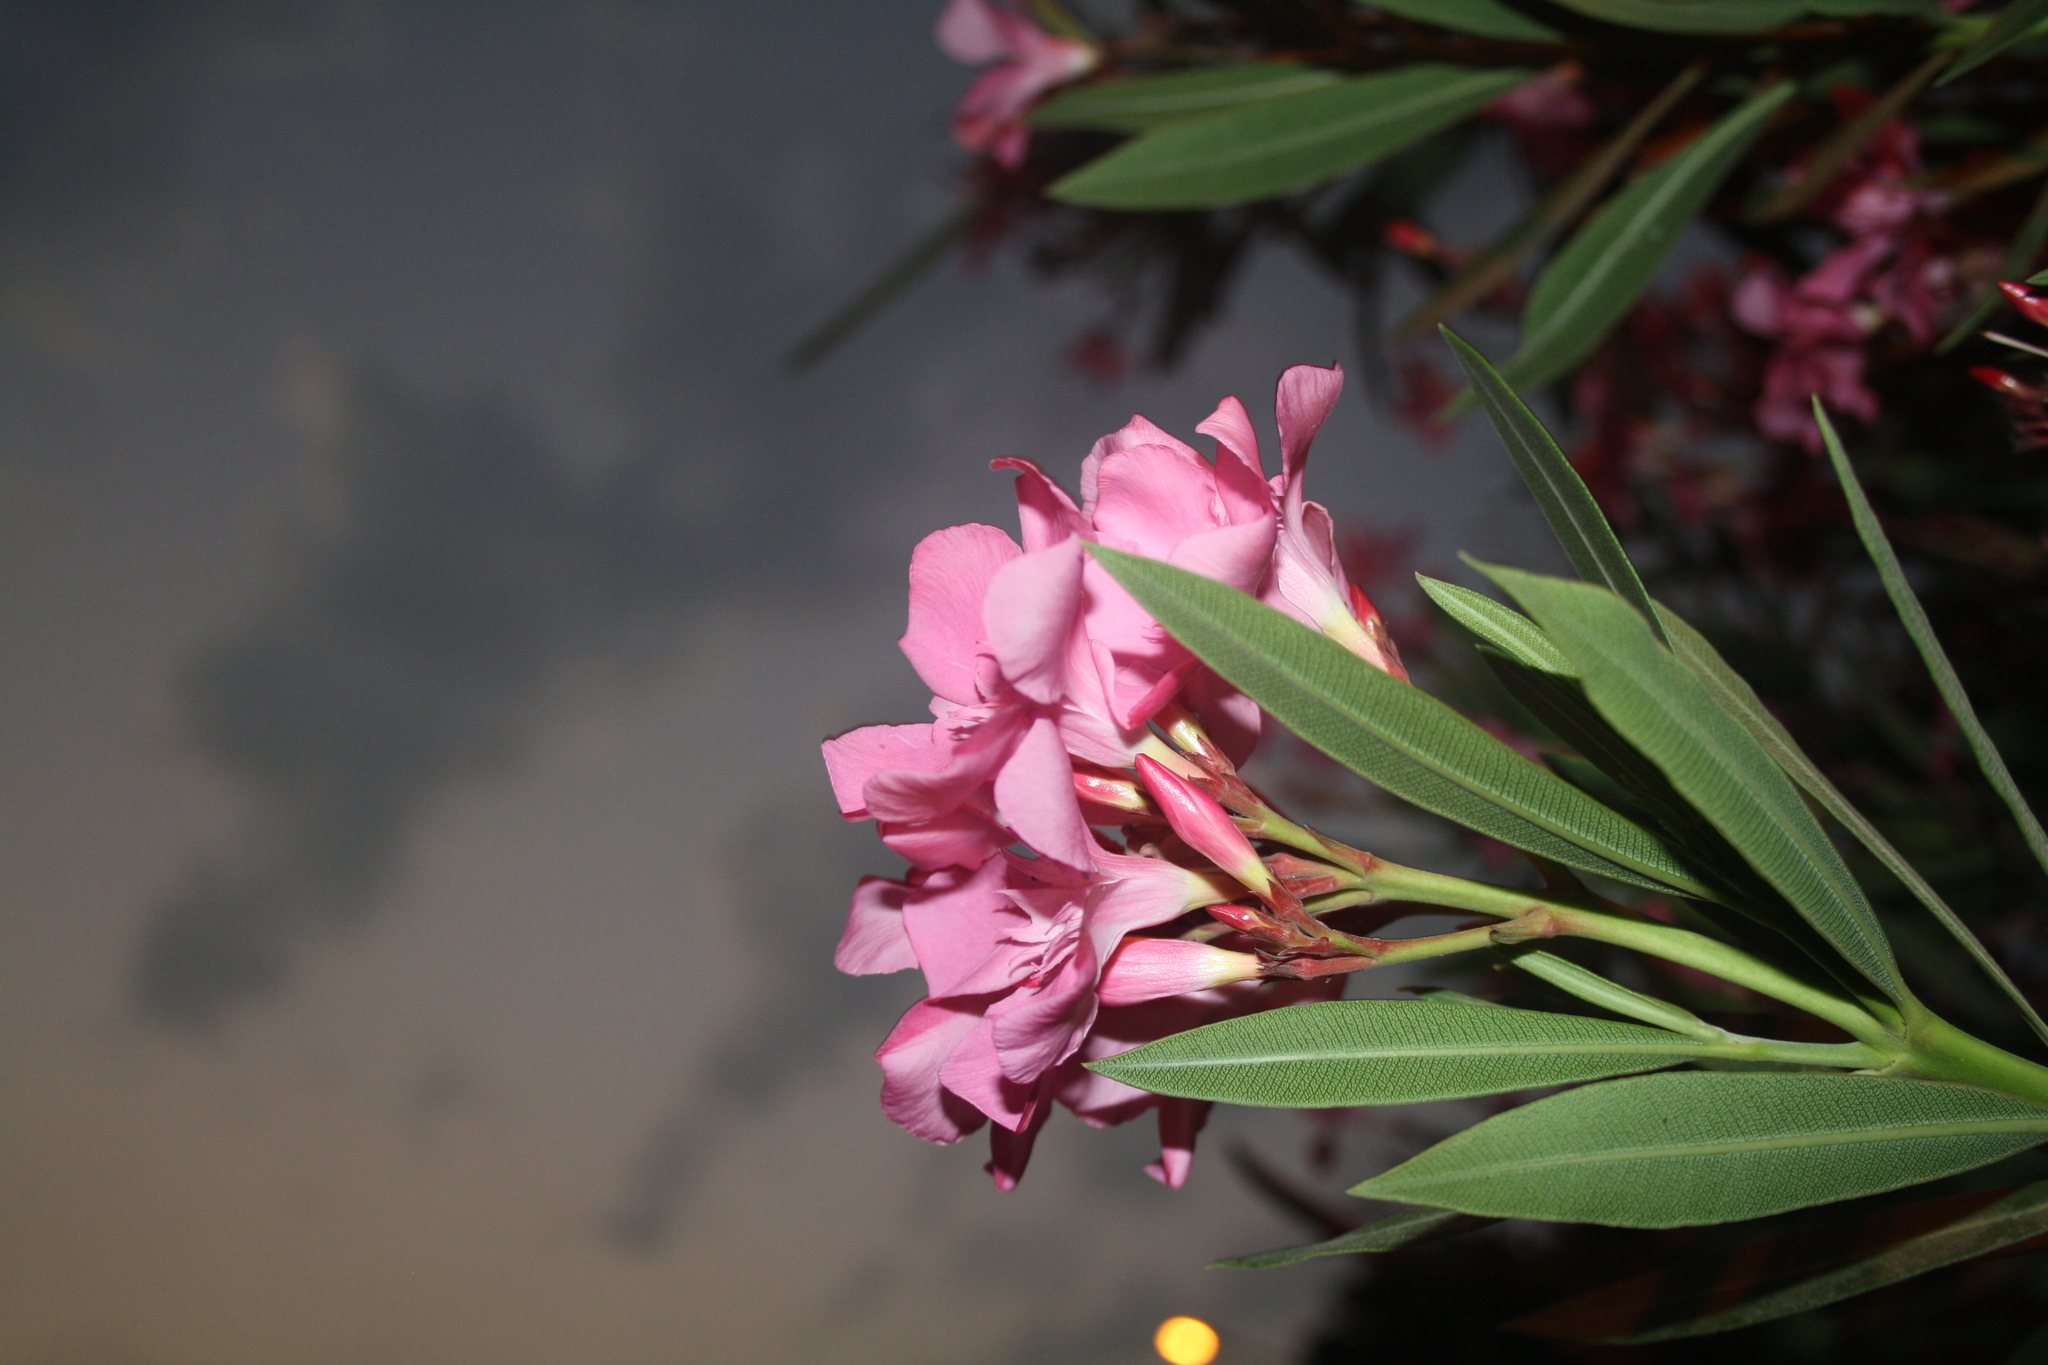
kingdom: Plantae
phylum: Tracheophyta
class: Magnoliopsida
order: Gentianales
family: Apocynaceae
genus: Nerium
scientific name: Nerium oleander
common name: Oleander
